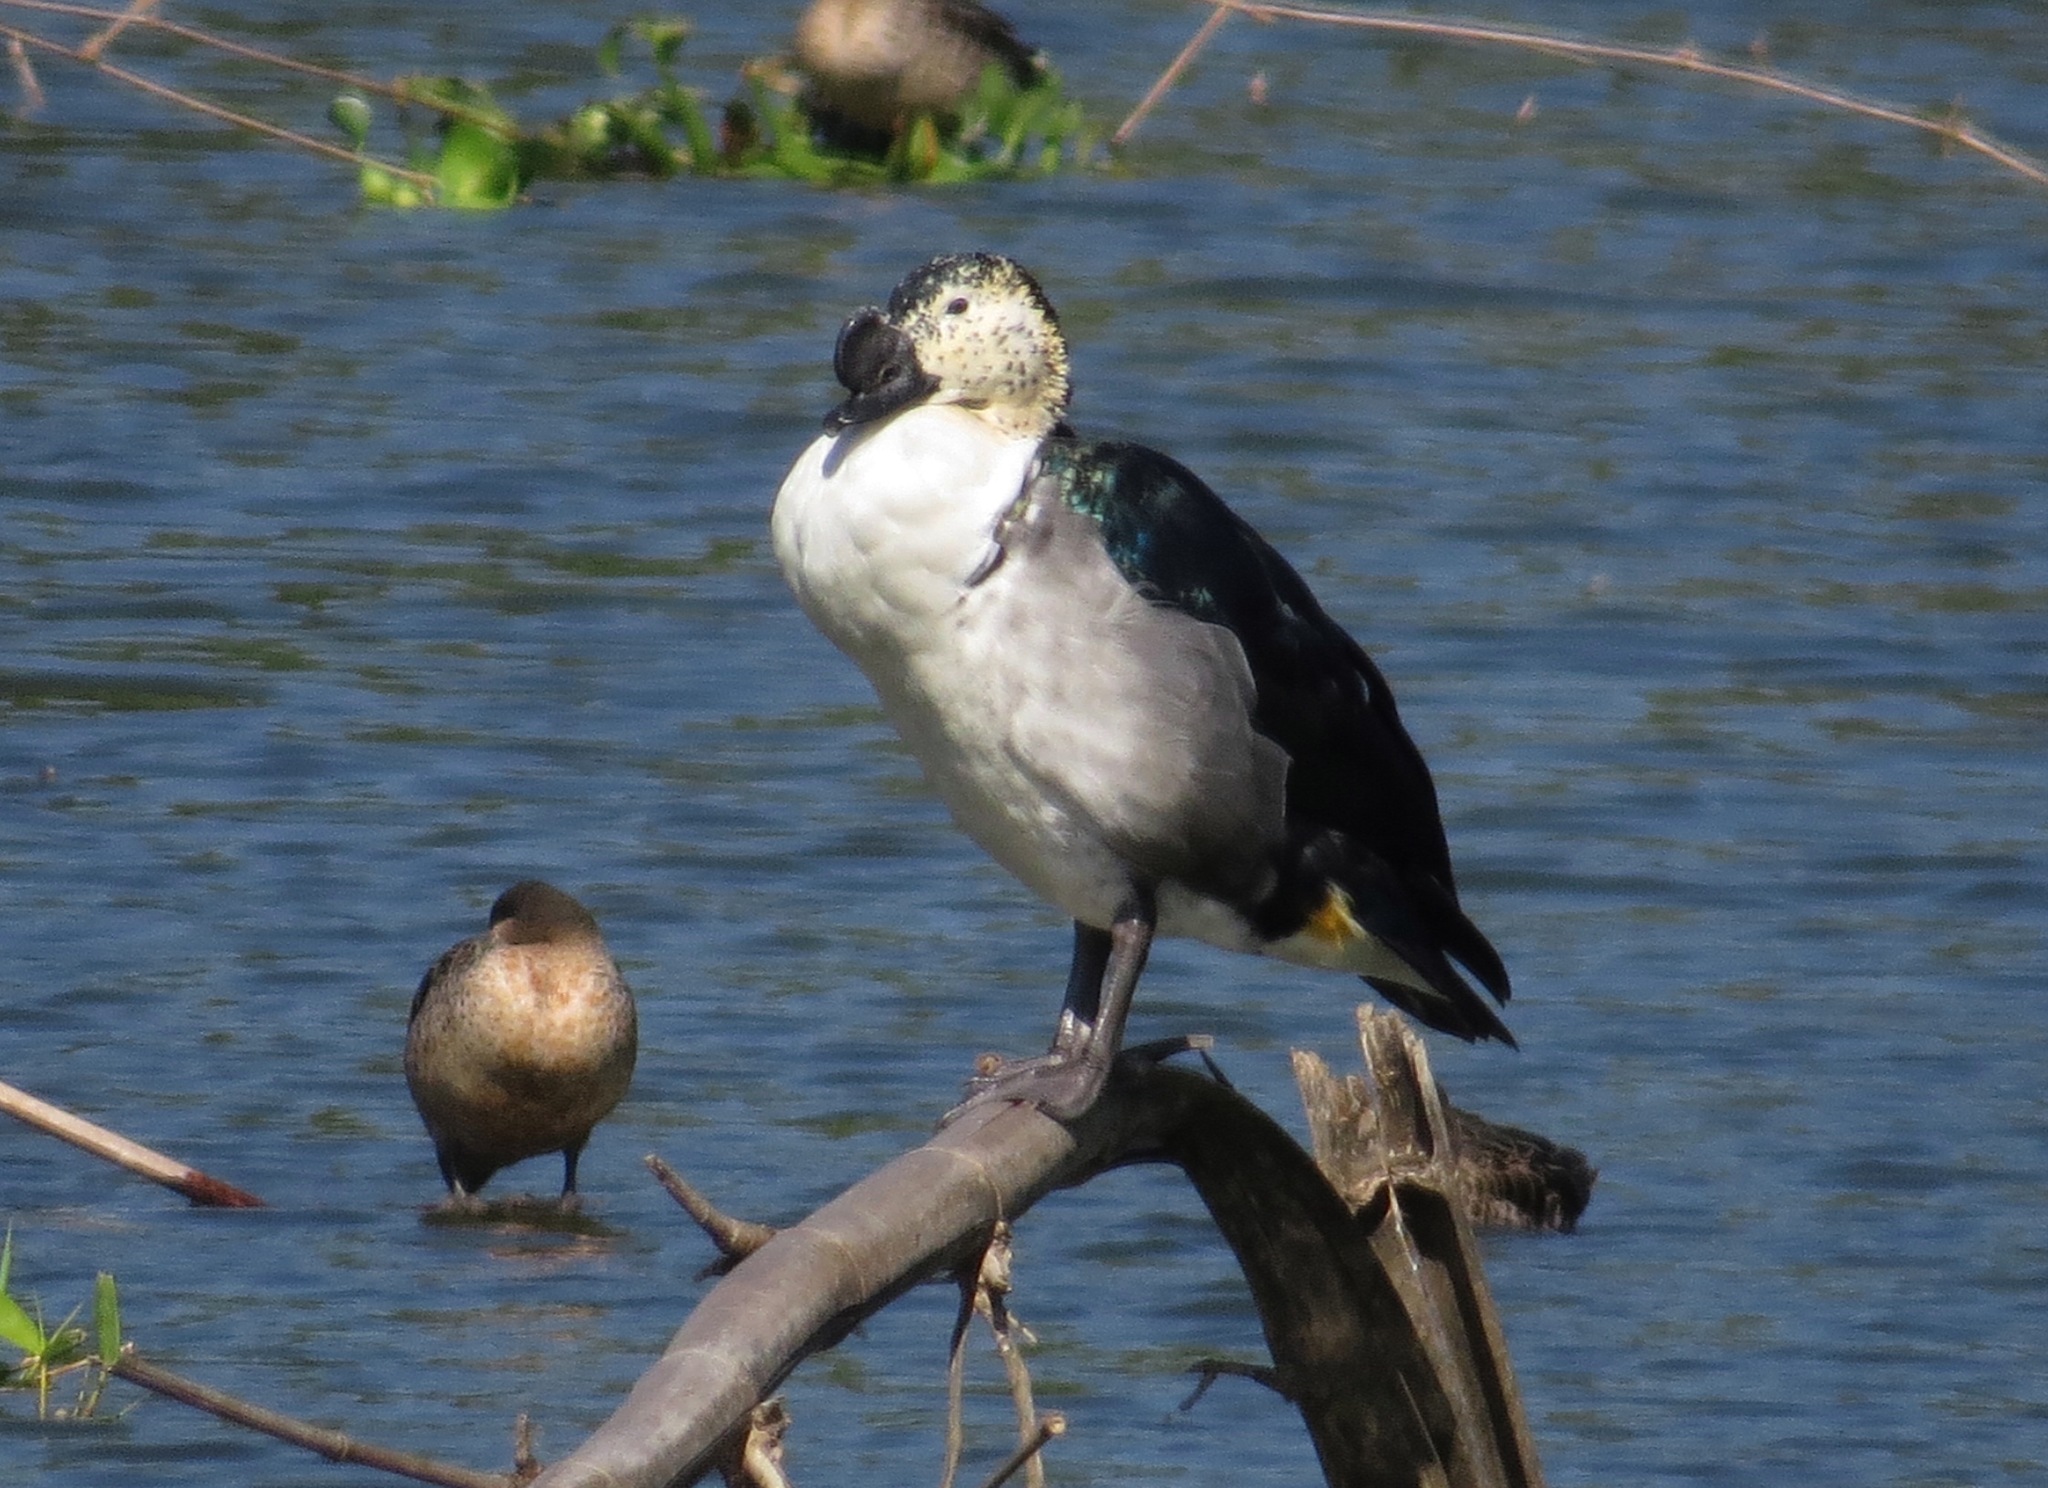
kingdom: Animalia
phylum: Chordata
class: Aves
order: Anseriformes
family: Anatidae
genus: Sarkidiornis
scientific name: Sarkidiornis melanotos
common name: Comb duck
